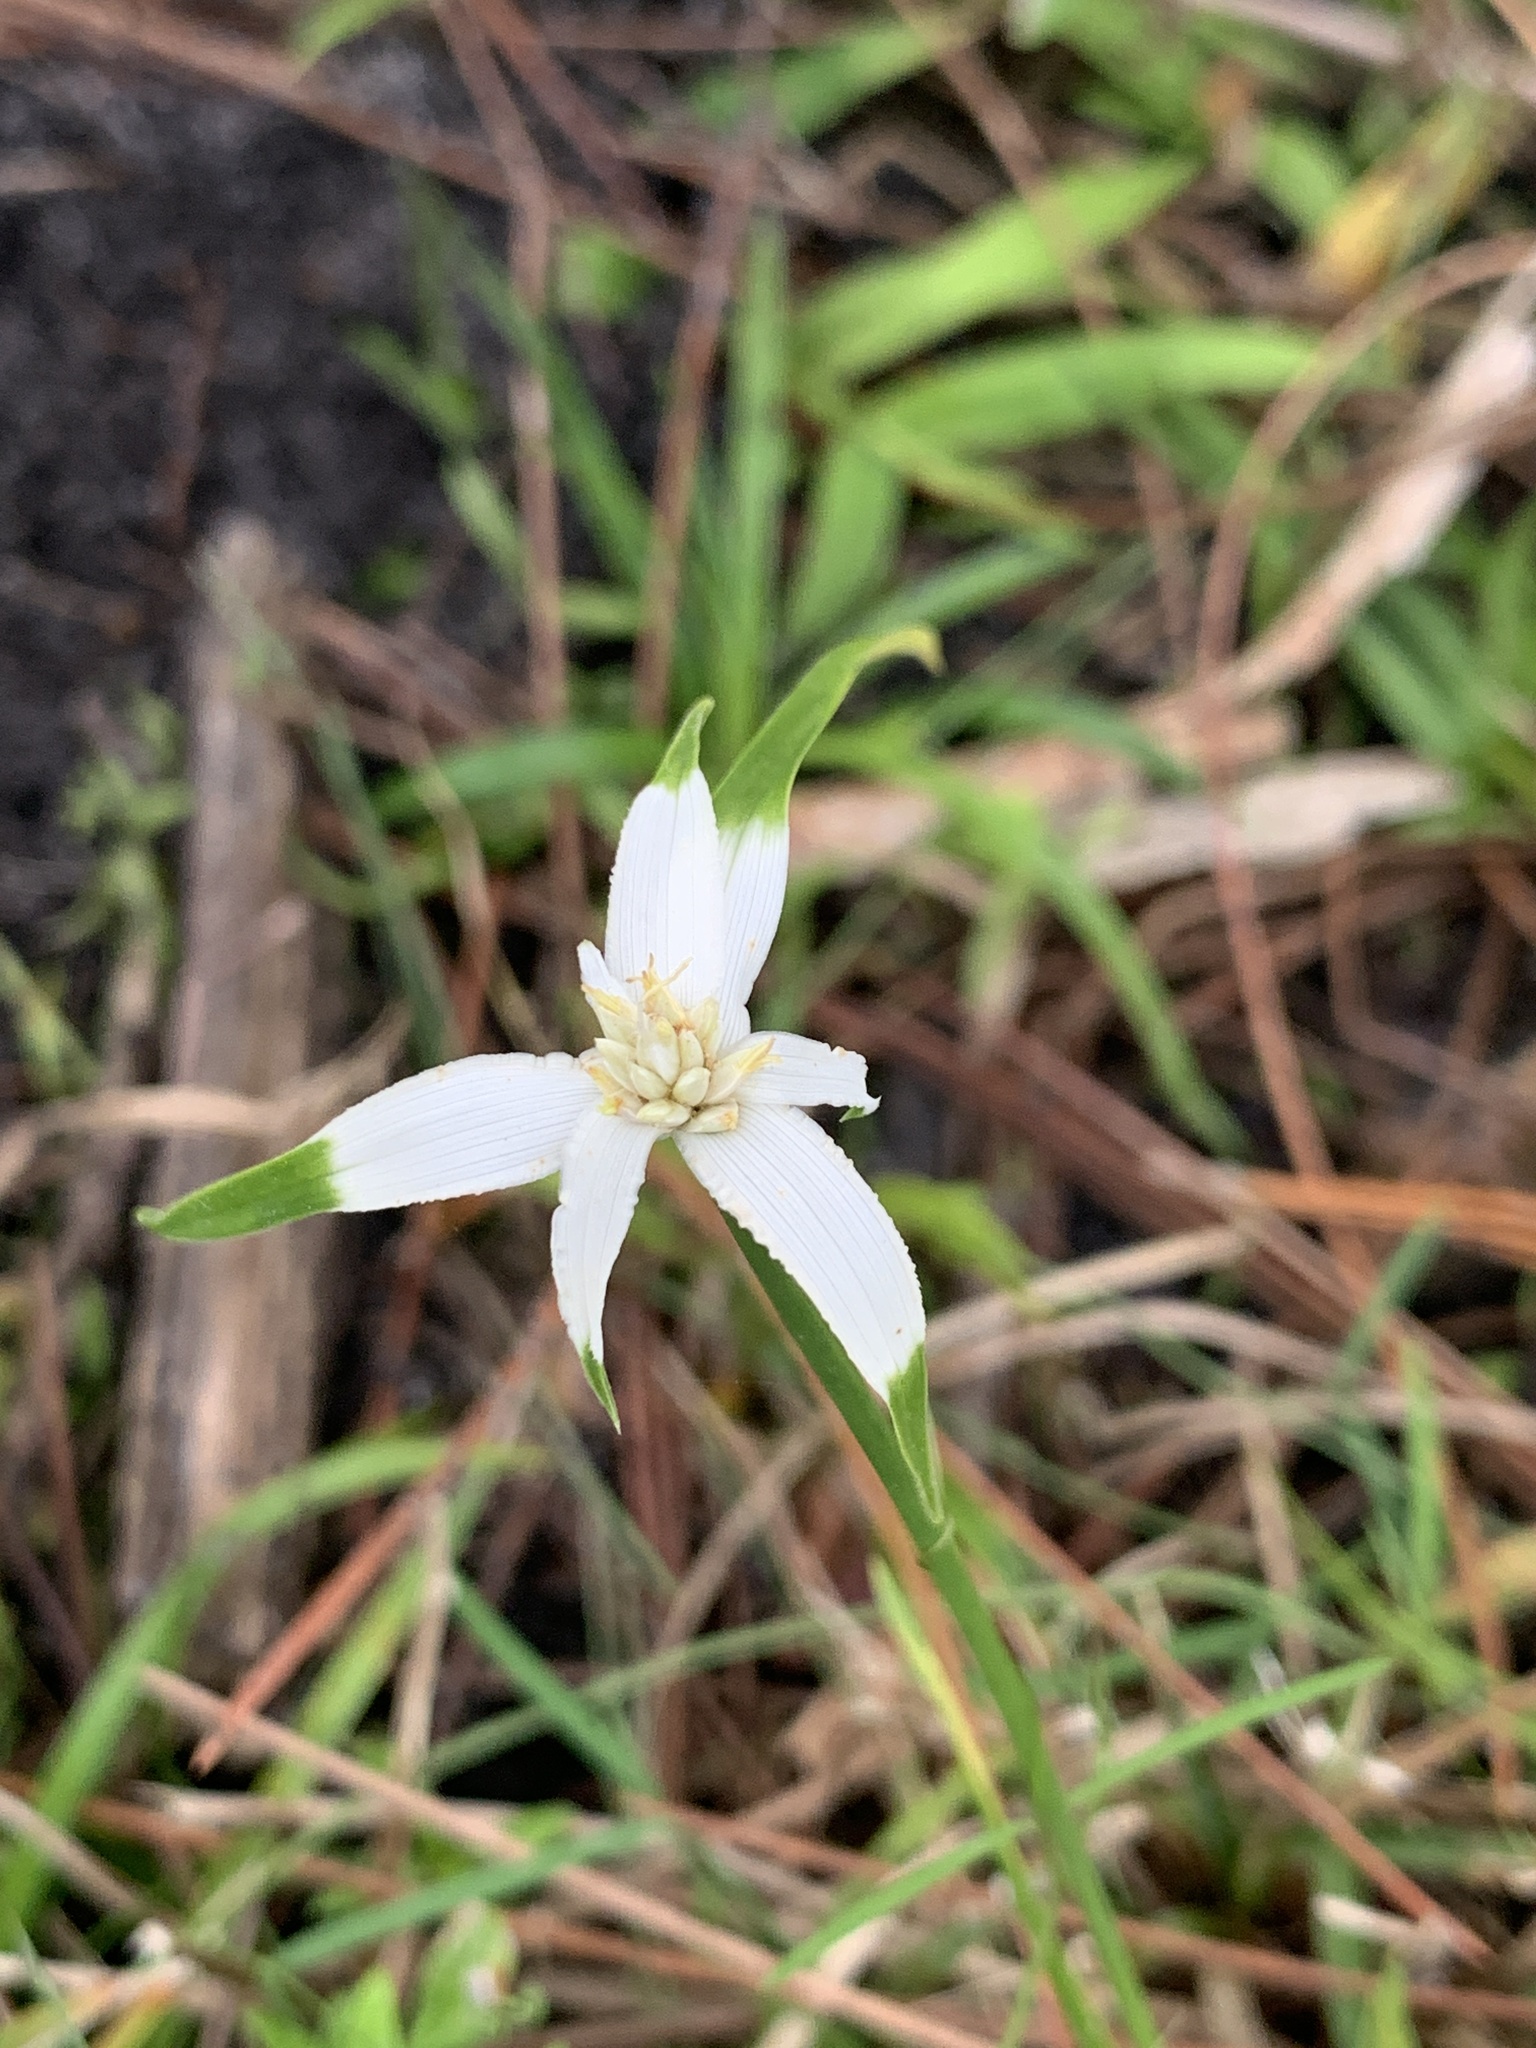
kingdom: Plantae
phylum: Tracheophyta
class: Liliopsida
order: Poales
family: Cyperaceae
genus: Rhynchospora
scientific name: Rhynchospora colorata
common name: Star sedge
